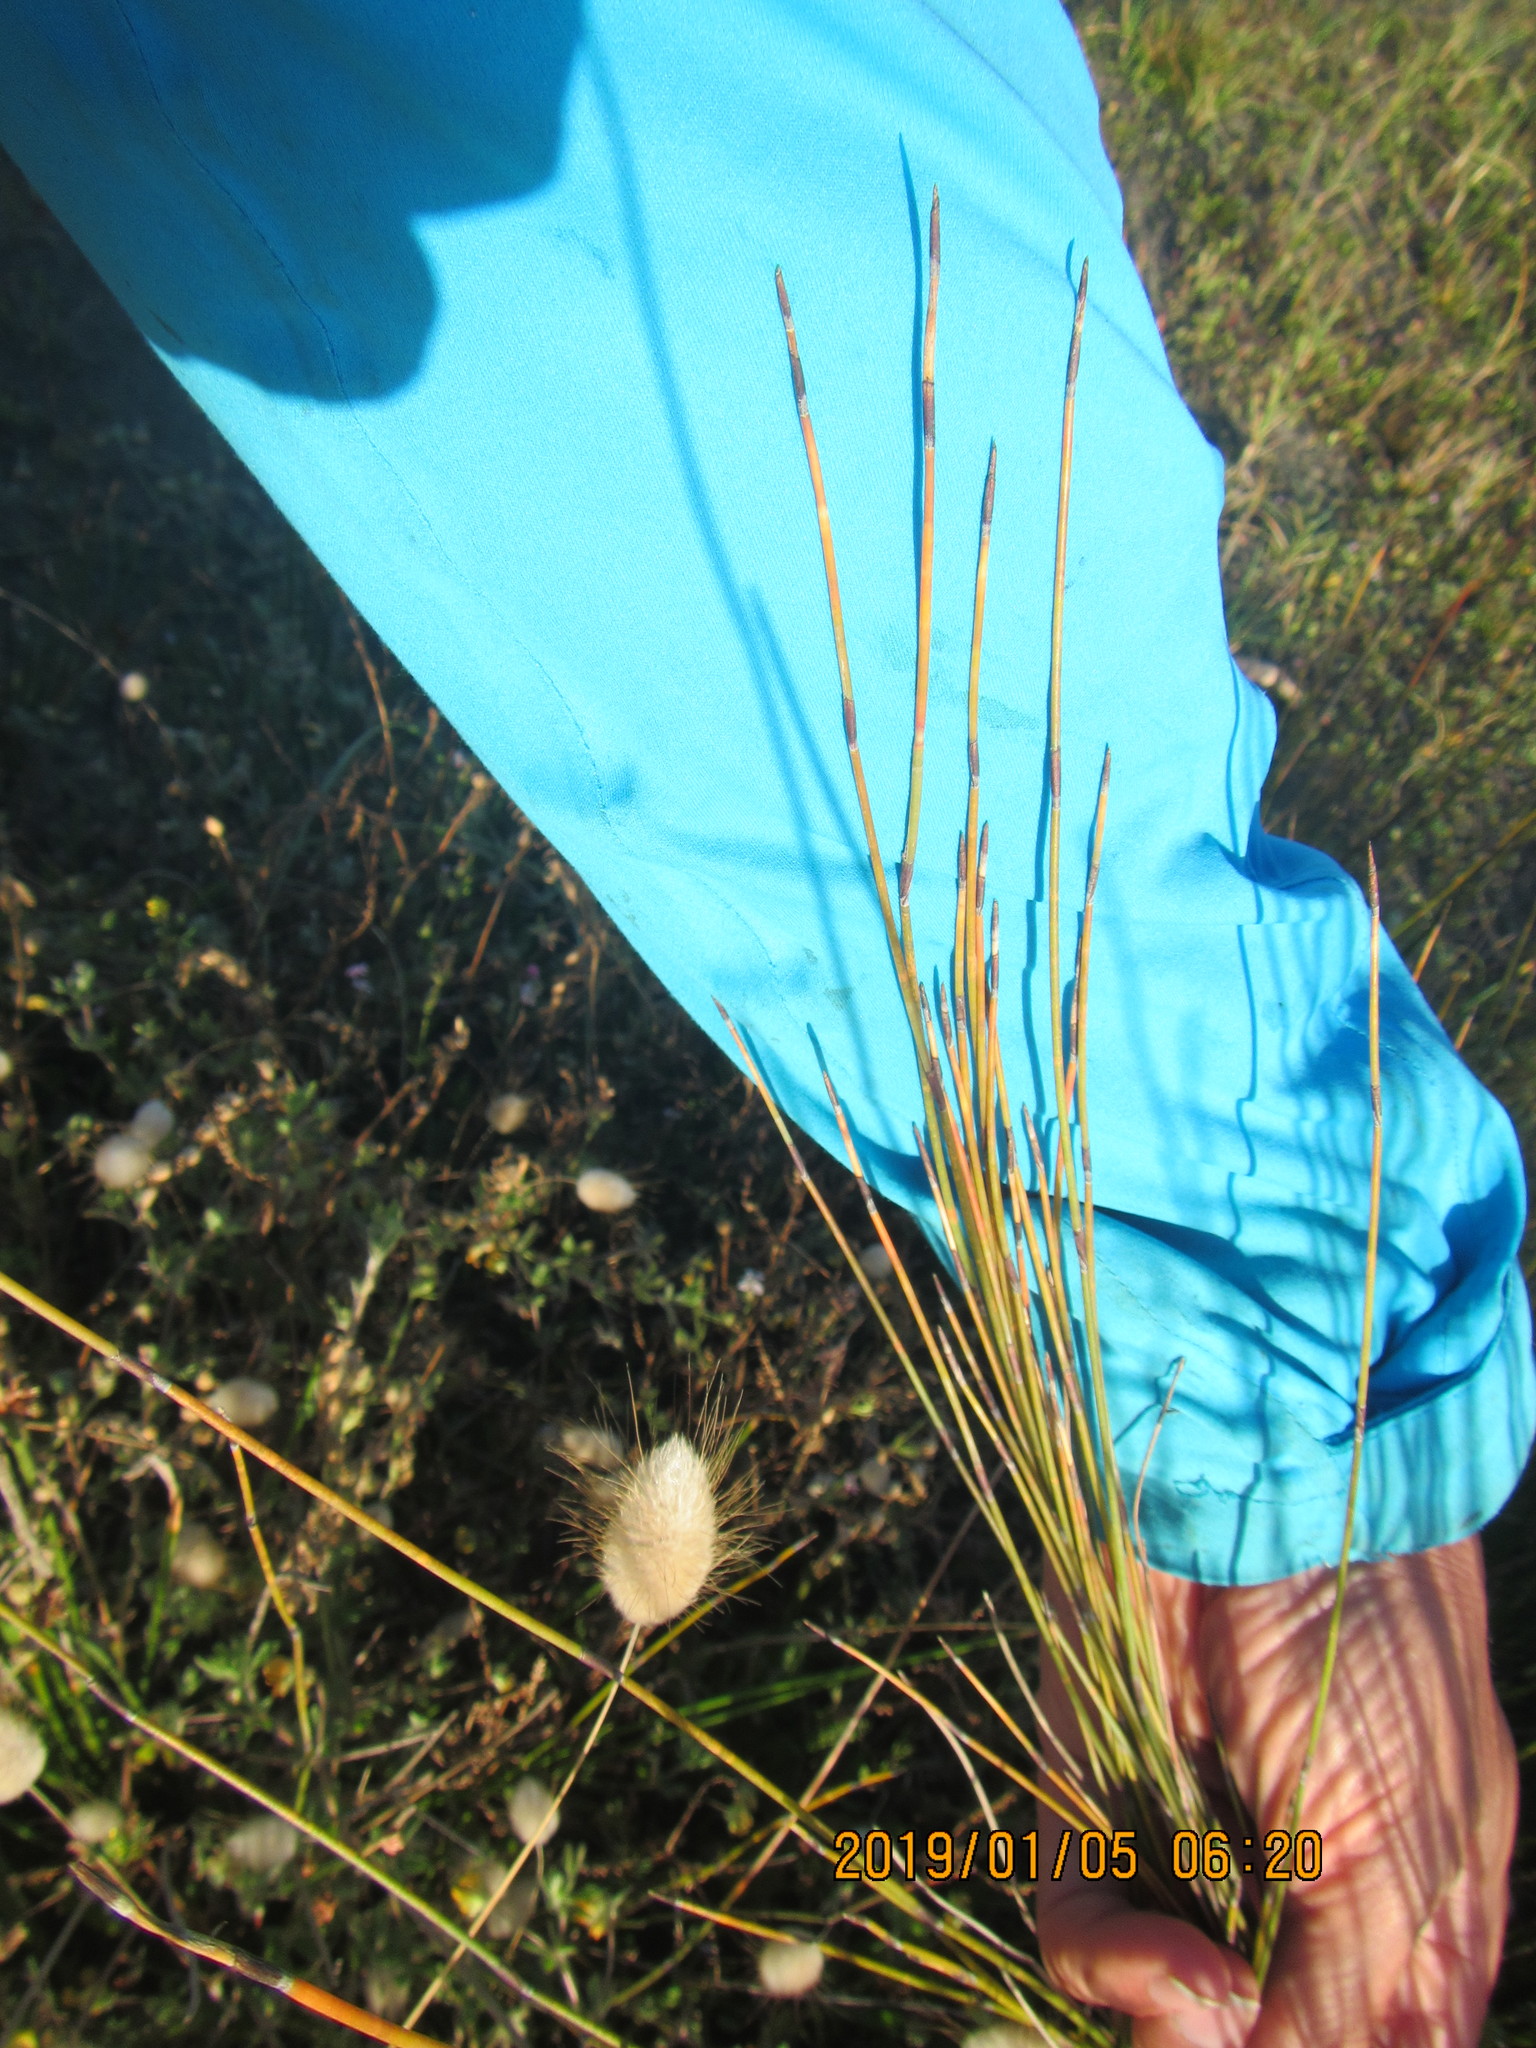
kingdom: Plantae
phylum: Tracheophyta
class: Liliopsida
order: Poales
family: Restionaceae
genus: Apodasmia
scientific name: Apodasmia similis
